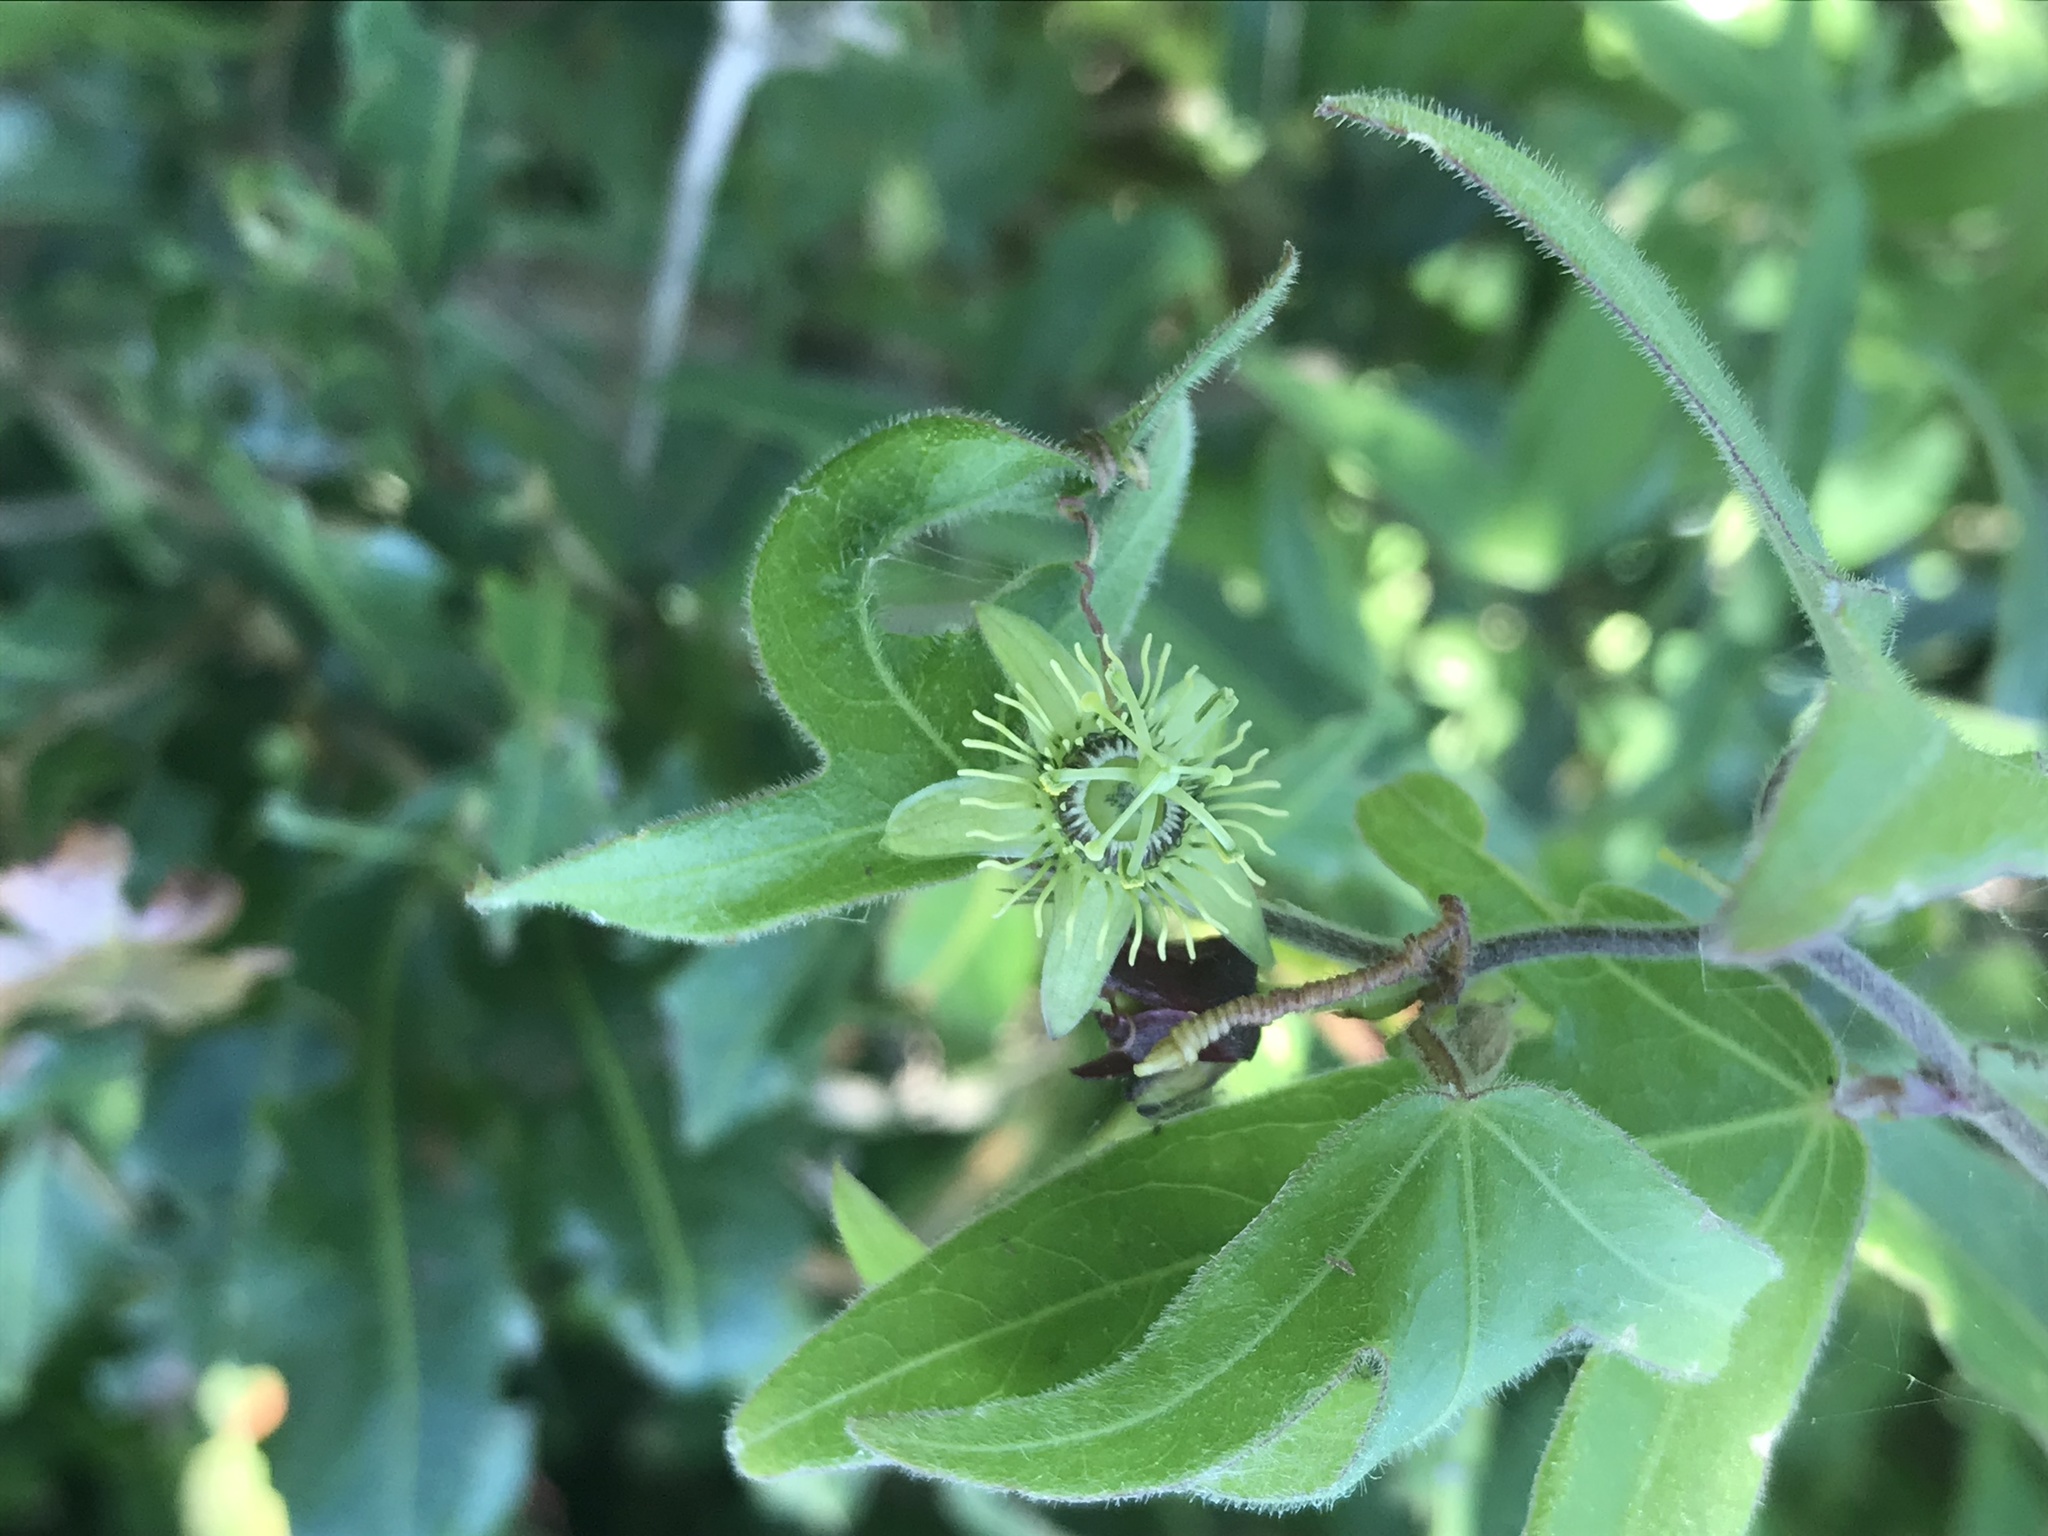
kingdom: Plantae
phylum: Tracheophyta
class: Magnoliopsida
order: Malpighiales
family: Passifloraceae
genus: Passiflora
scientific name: Passiflora suberosa
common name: Wild passionfruit
